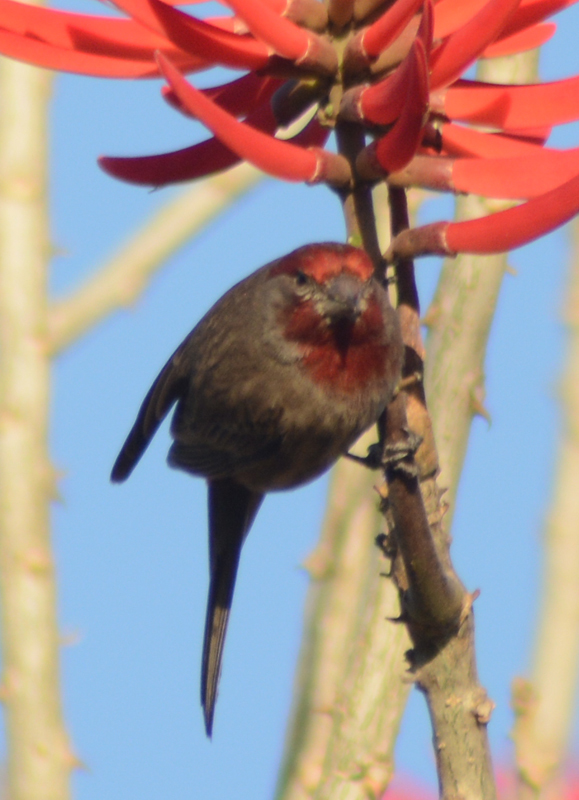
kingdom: Animalia
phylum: Chordata
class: Aves
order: Passeriformes
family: Fringillidae
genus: Haemorhous
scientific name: Haemorhous mexicanus
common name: House finch
